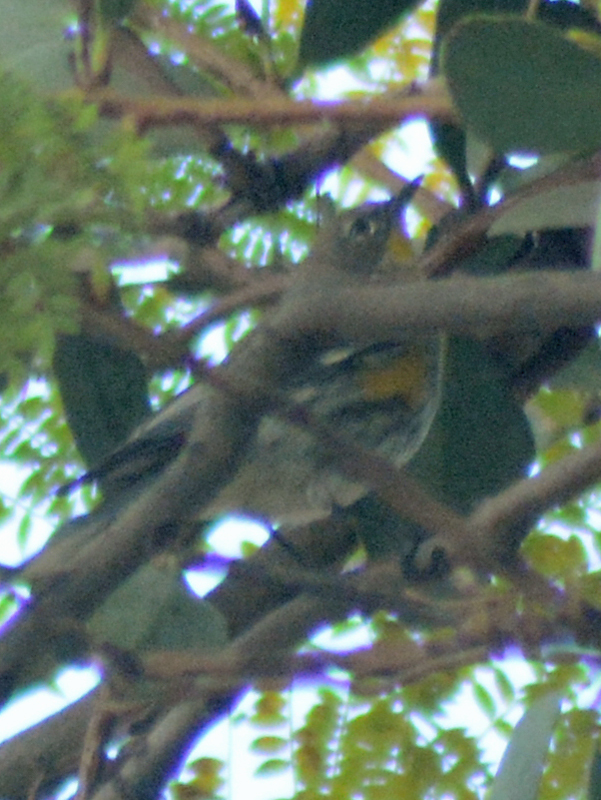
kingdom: Animalia
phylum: Chordata
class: Aves
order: Passeriformes
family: Parulidae
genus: Setophaga
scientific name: Setophaga coronata
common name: Myrtle warbler
